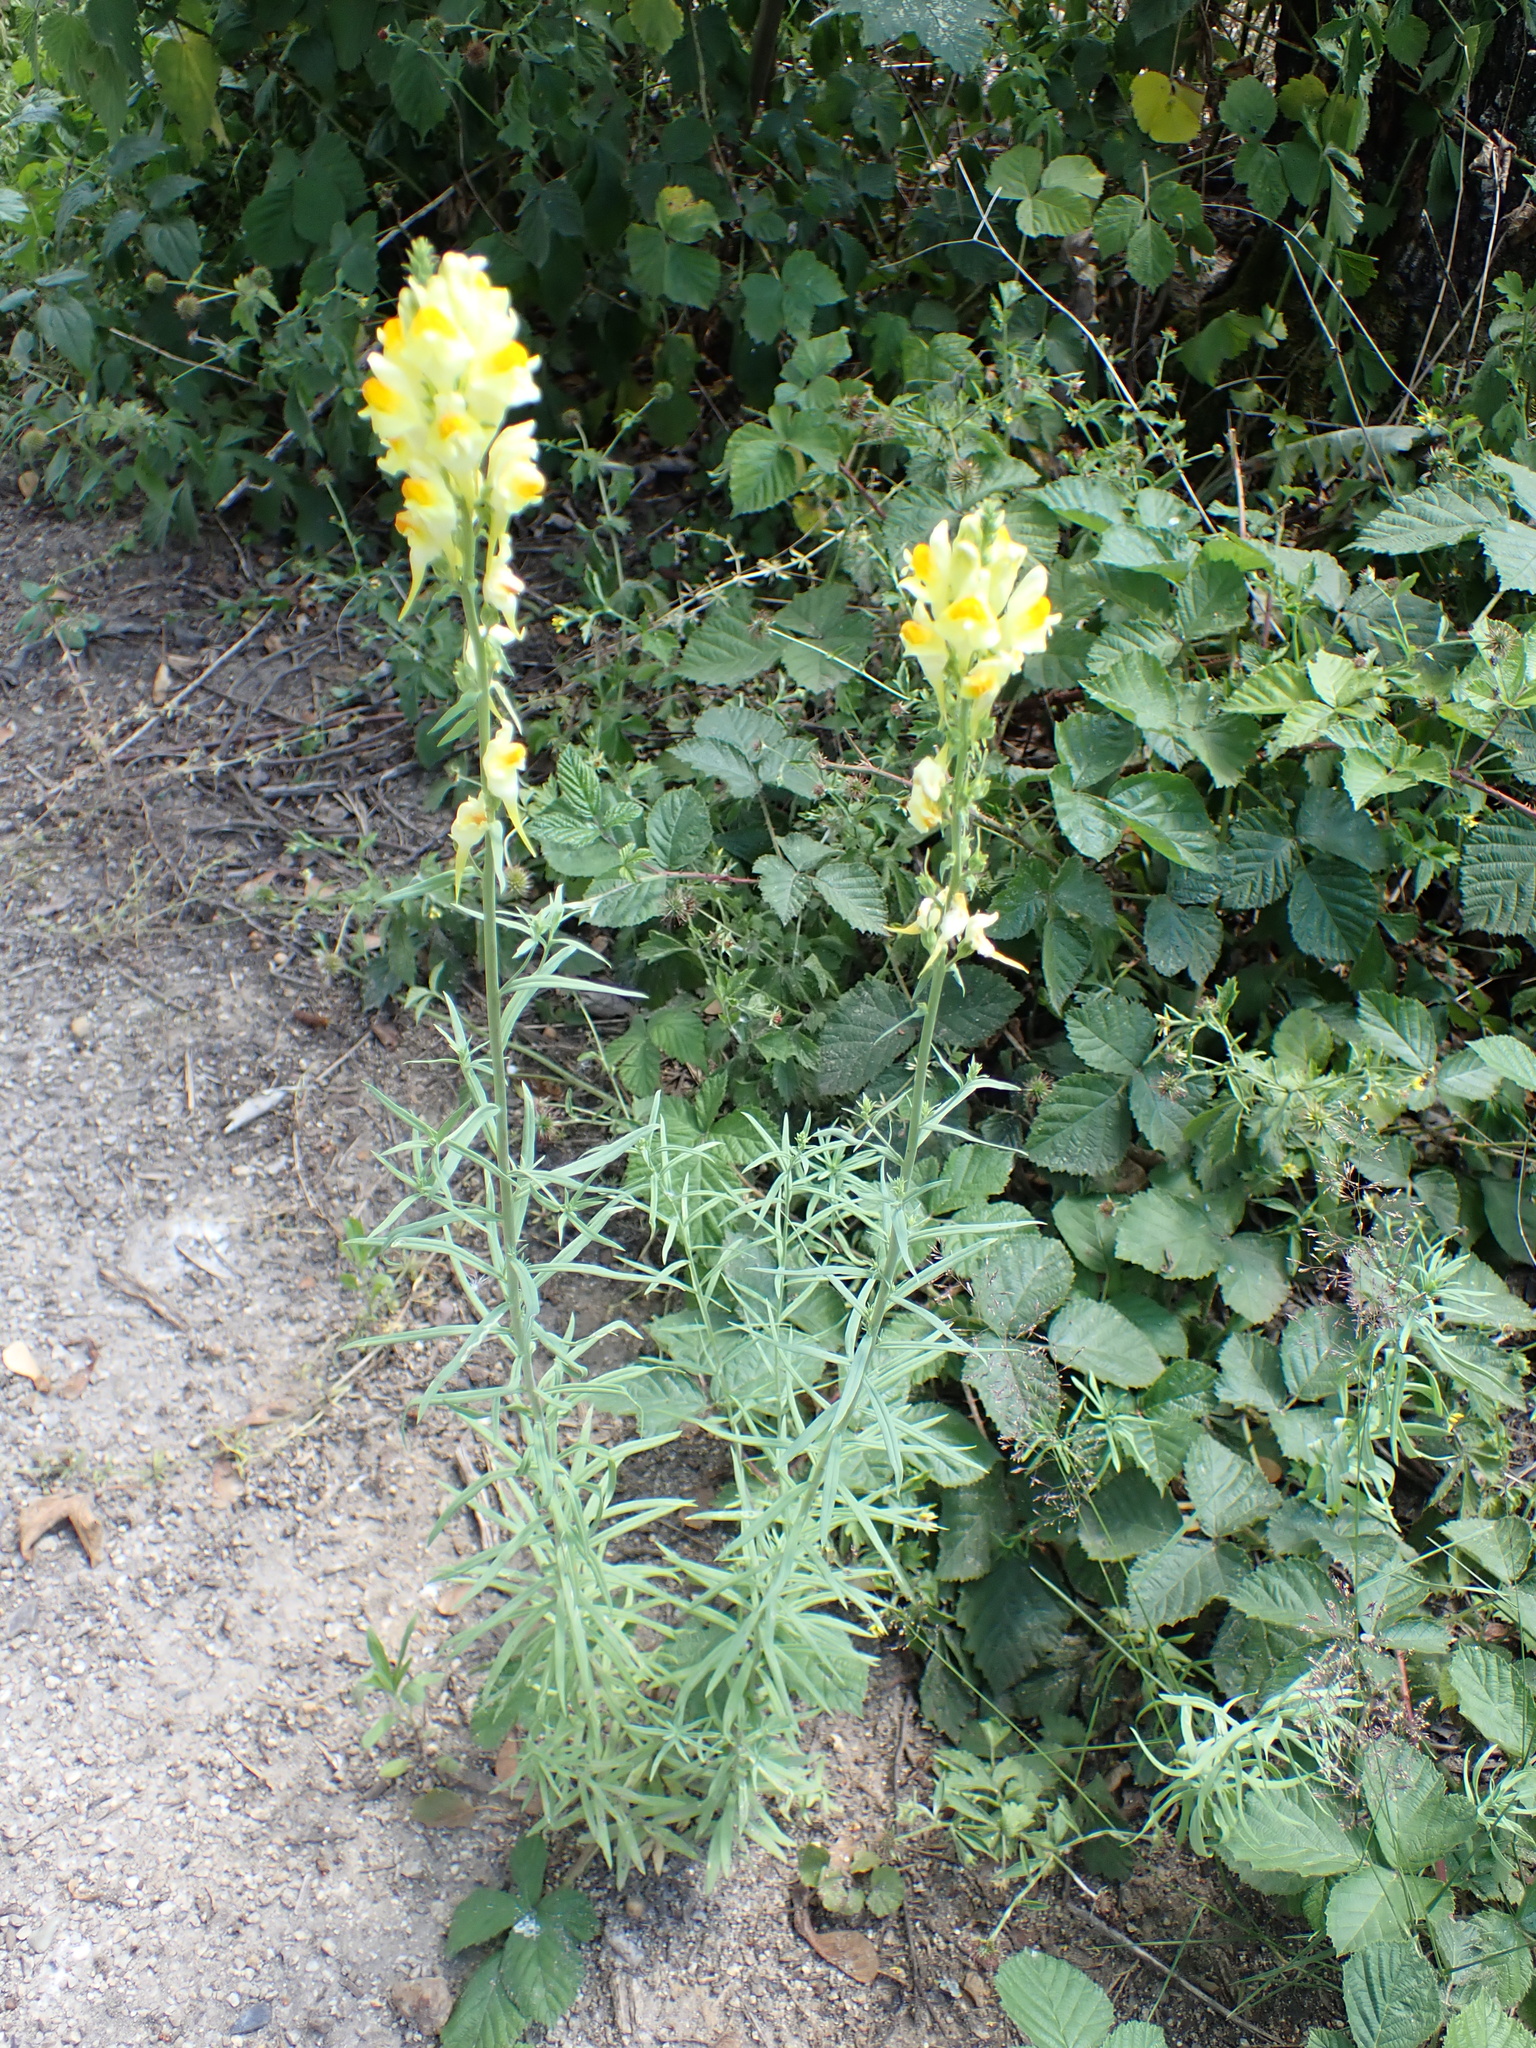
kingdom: Plantae
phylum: Tracheophyta
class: Magnoliopsida
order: Lamiales
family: Plantaginaceae
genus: Linaria
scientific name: Linaria vulgaris
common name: Butter and eggs
